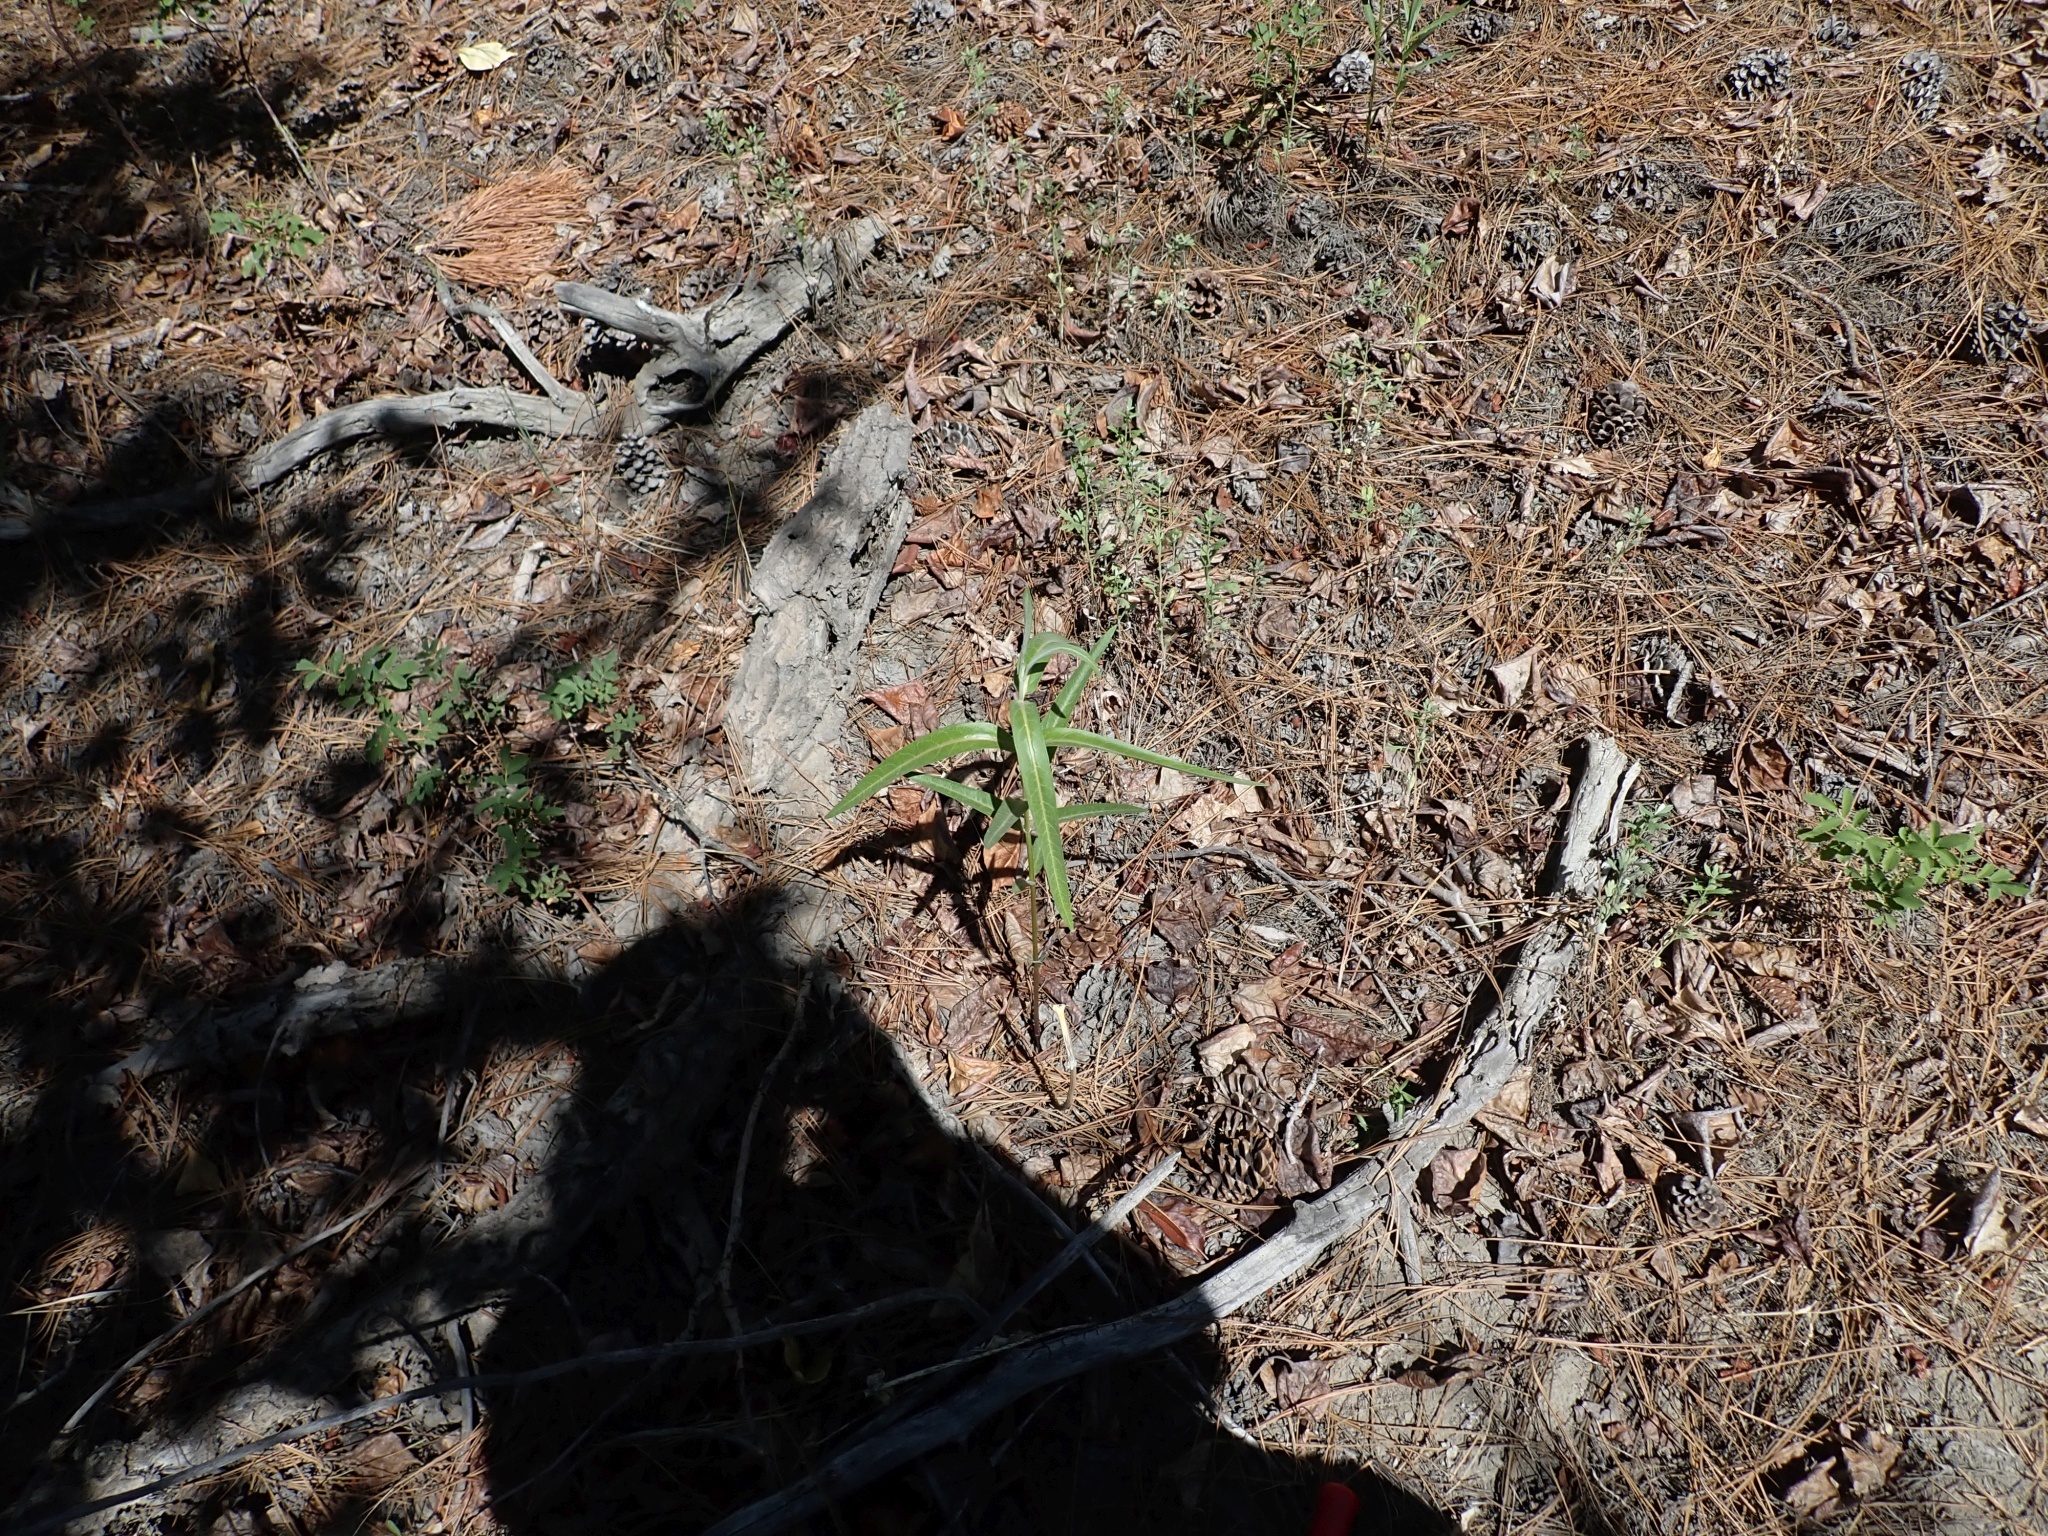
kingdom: Plantae
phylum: Tracheophyta
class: Magnoliopsida
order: Myrtales
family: Onagraceae
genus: Chamaenerion
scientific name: Chamaenerion angustifolium
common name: Fireweed
